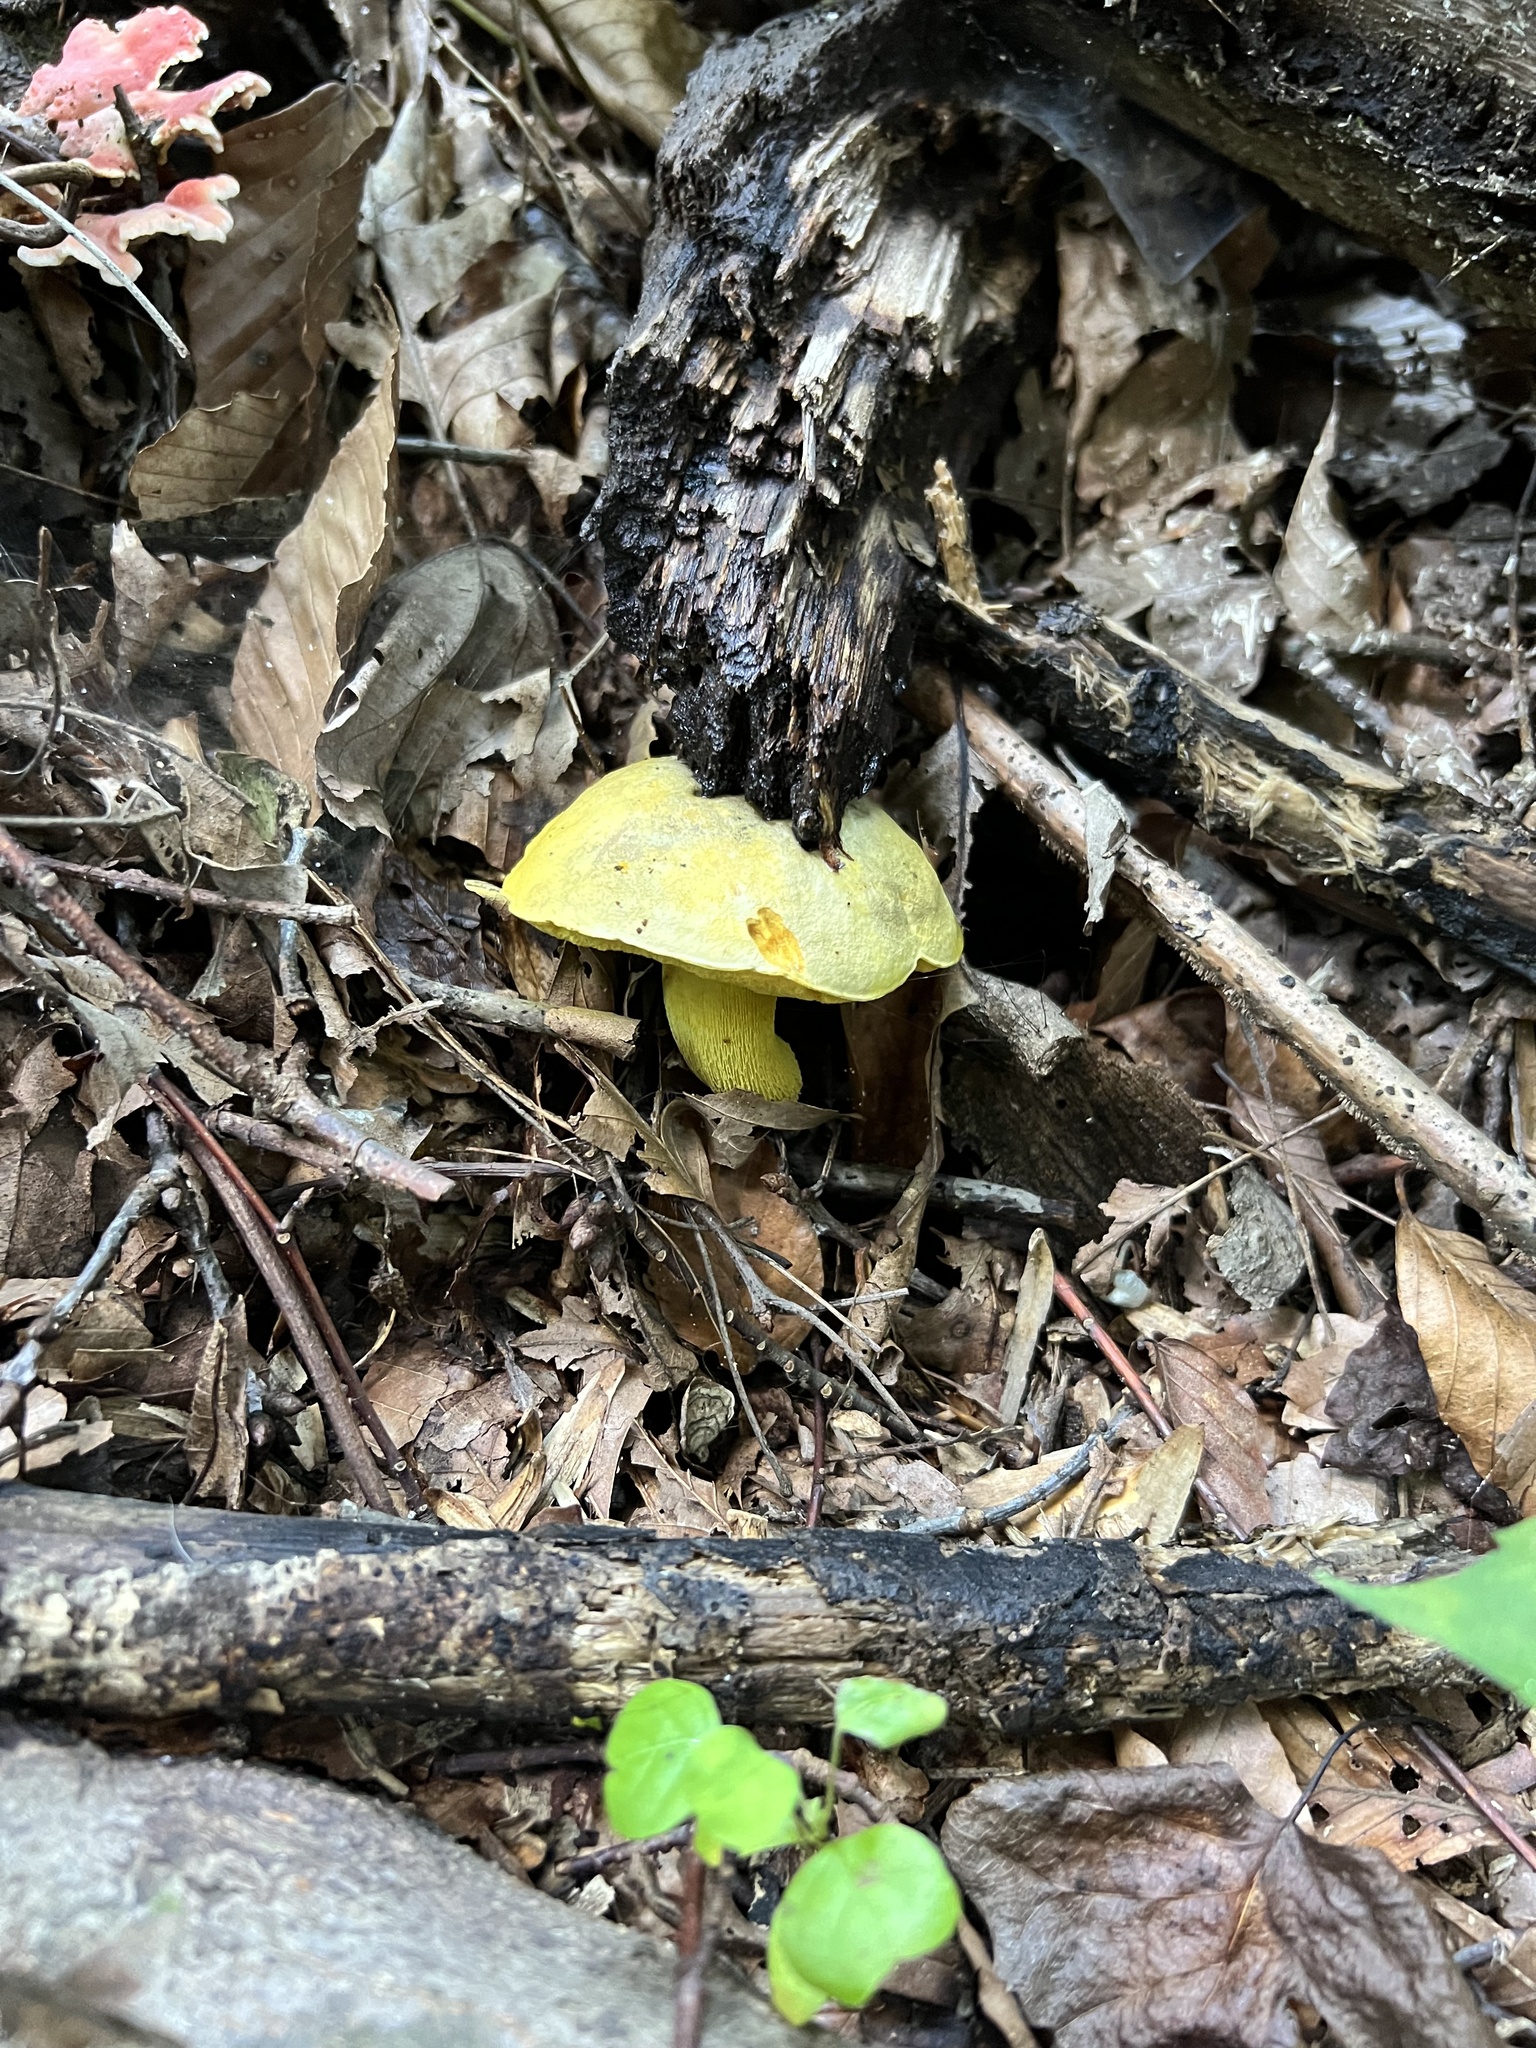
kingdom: Fungi
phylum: Basidiomycota
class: Agaricomycetes
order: Boletales
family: Boletaceae
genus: Retiboletus
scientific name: Retiboletus ornatipes
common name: Ornate-stalked bolete
